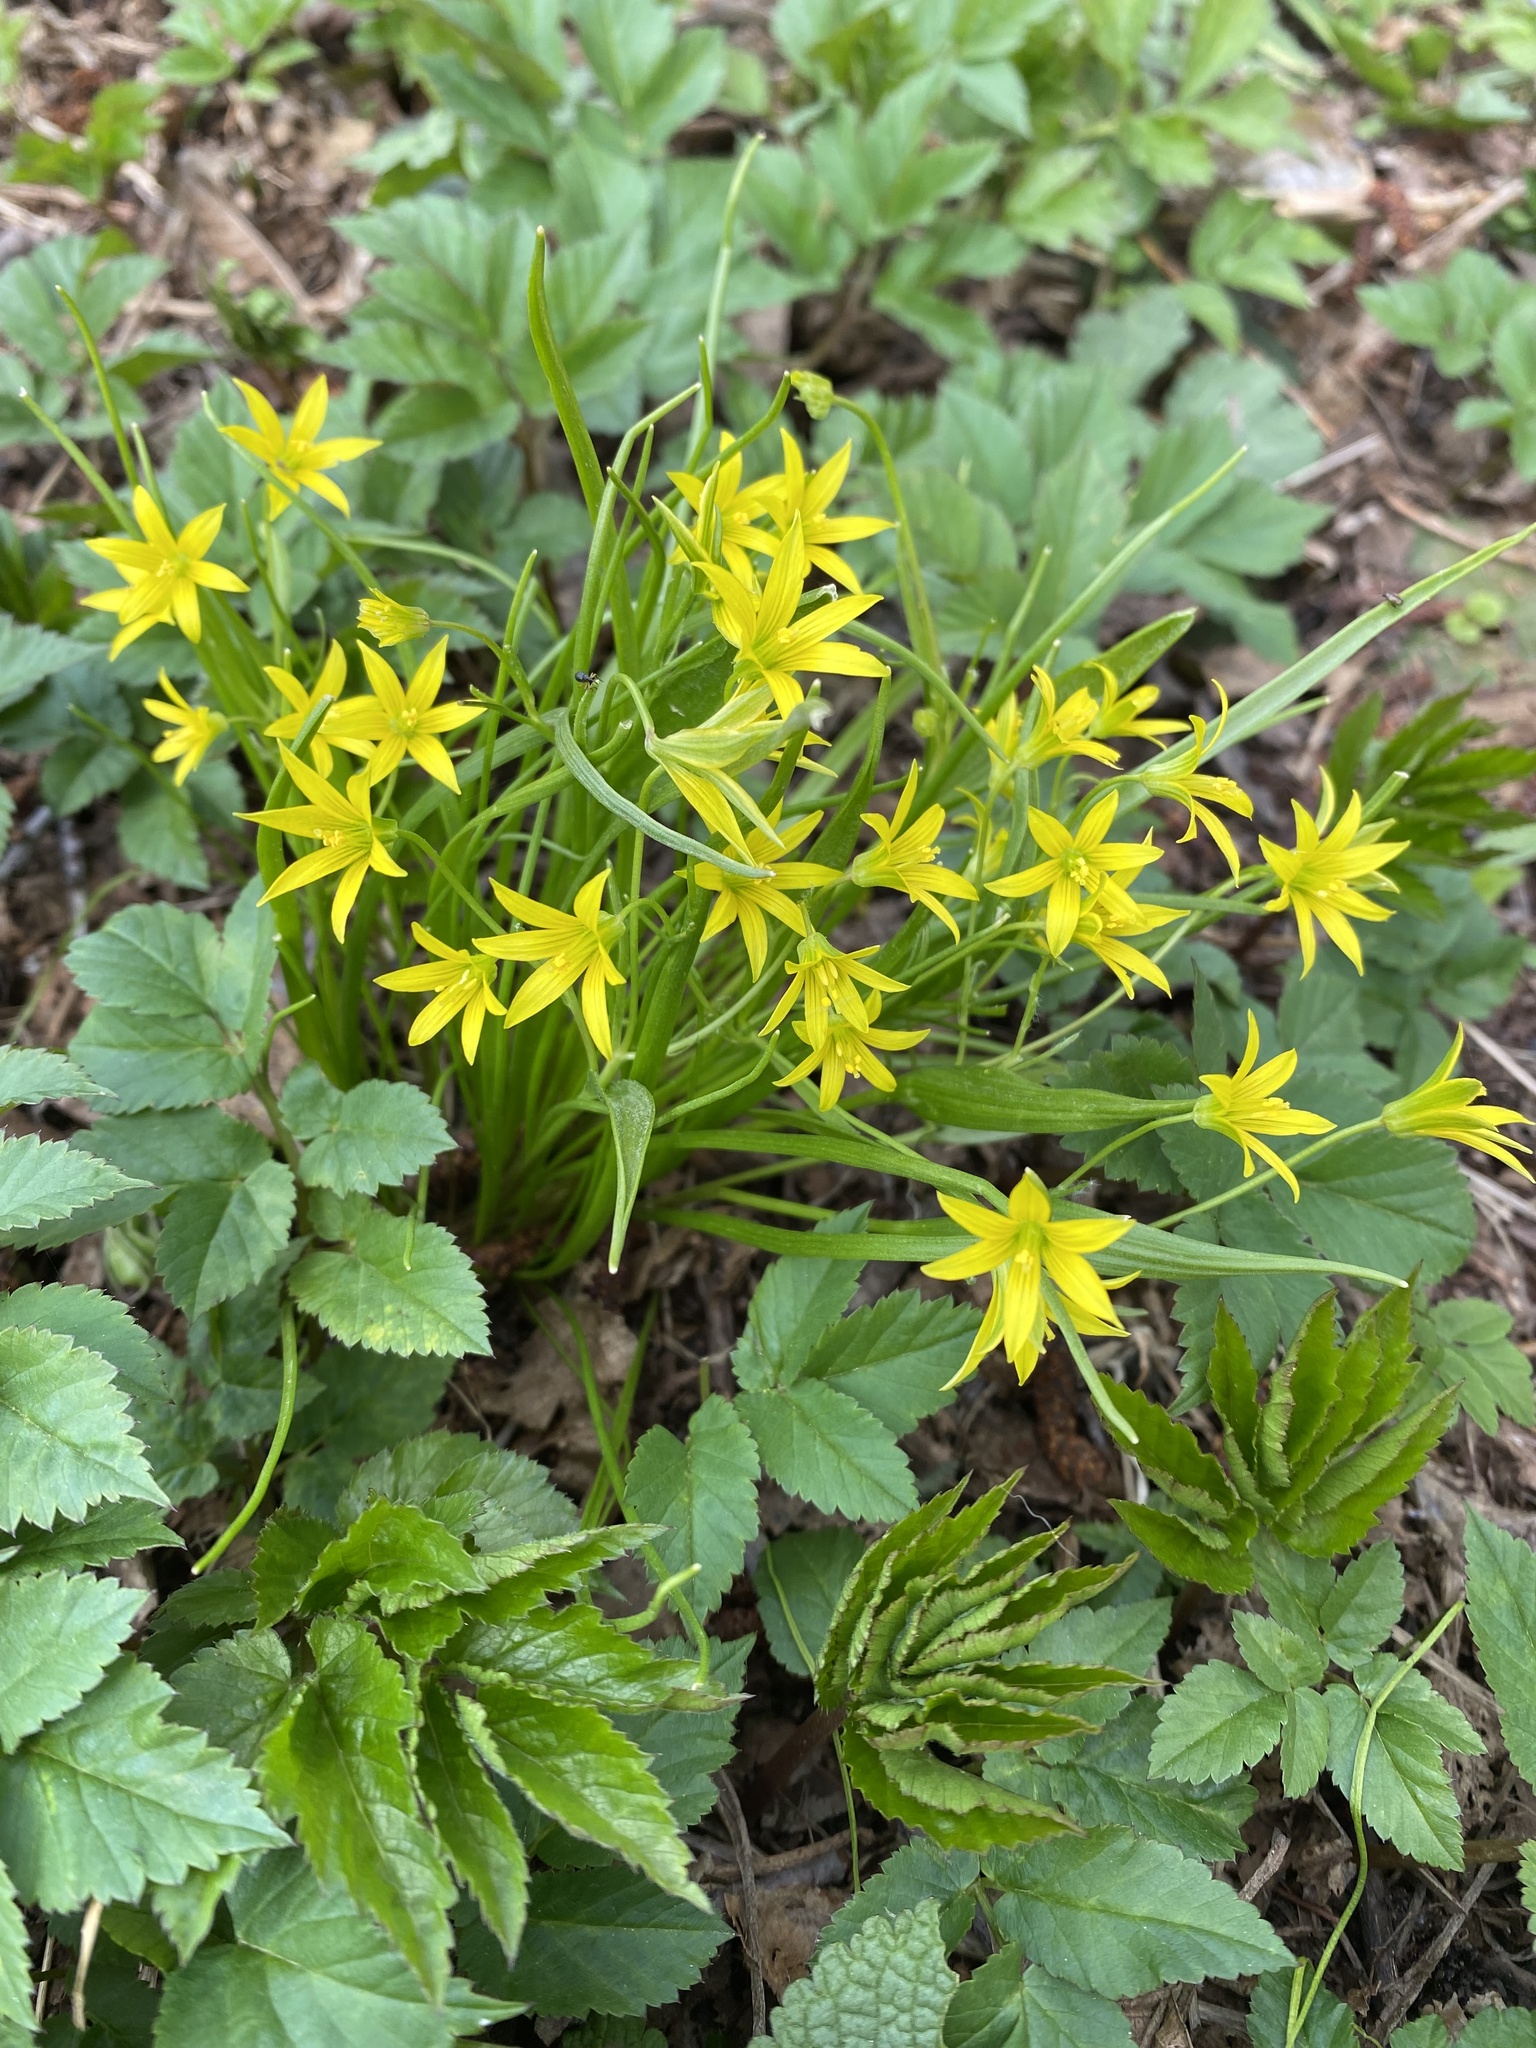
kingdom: Plantae
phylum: Tracheophyta
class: Liliopsida
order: Liliales
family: Liliaceae
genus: Gagea
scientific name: Gagea minima
